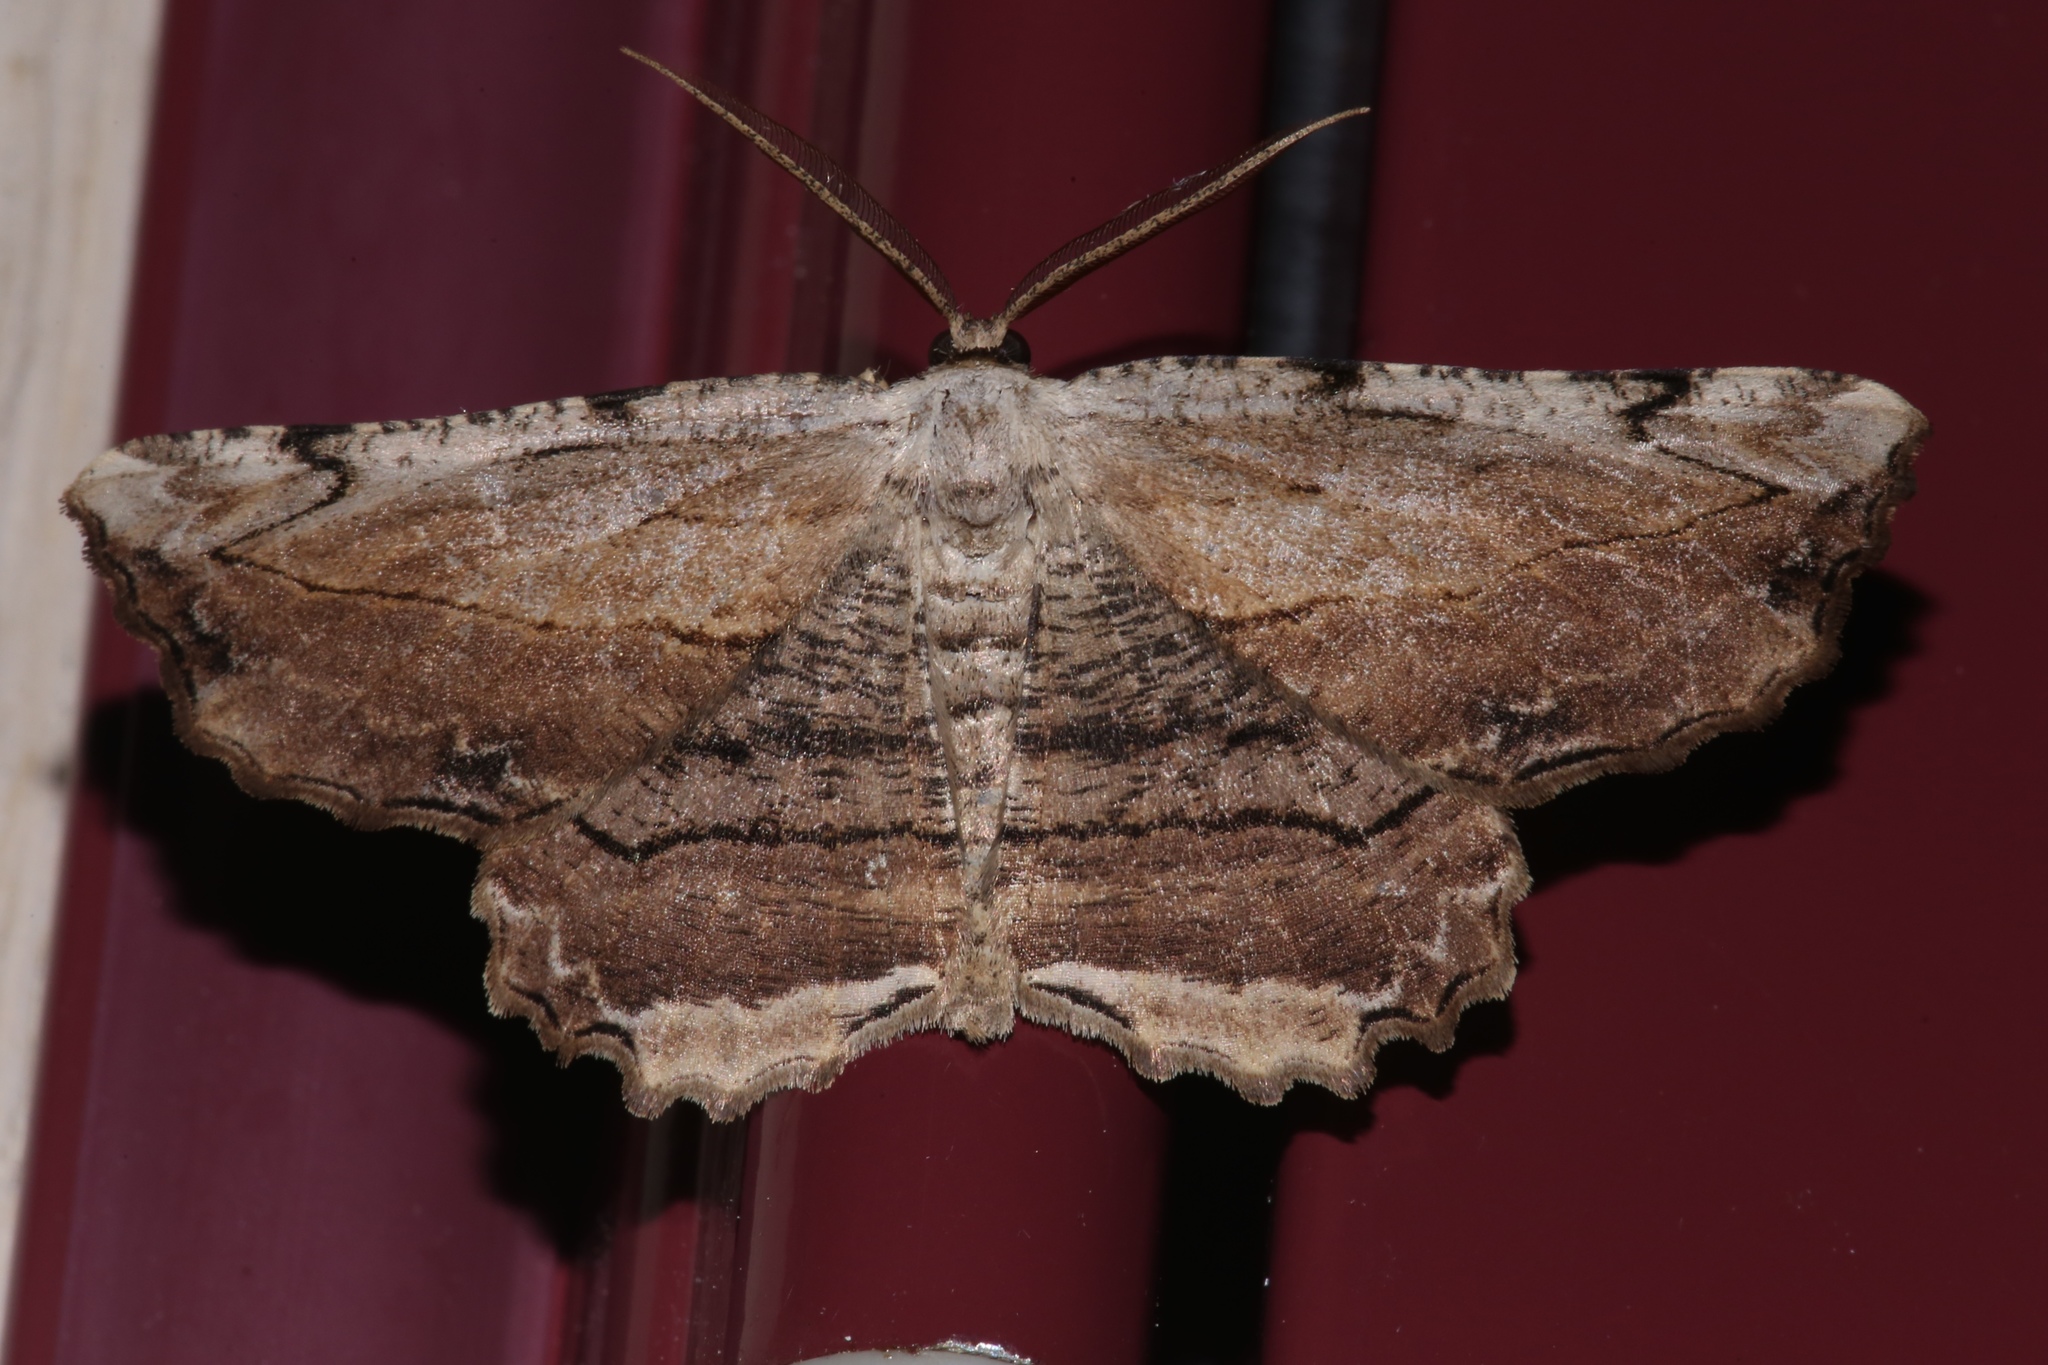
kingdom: Animalia
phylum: Arthropoda
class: Insecta
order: Lepidoptera
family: Geometridae
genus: Lytrosis
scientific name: Lytrosis unitaria
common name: Common lytrosis
